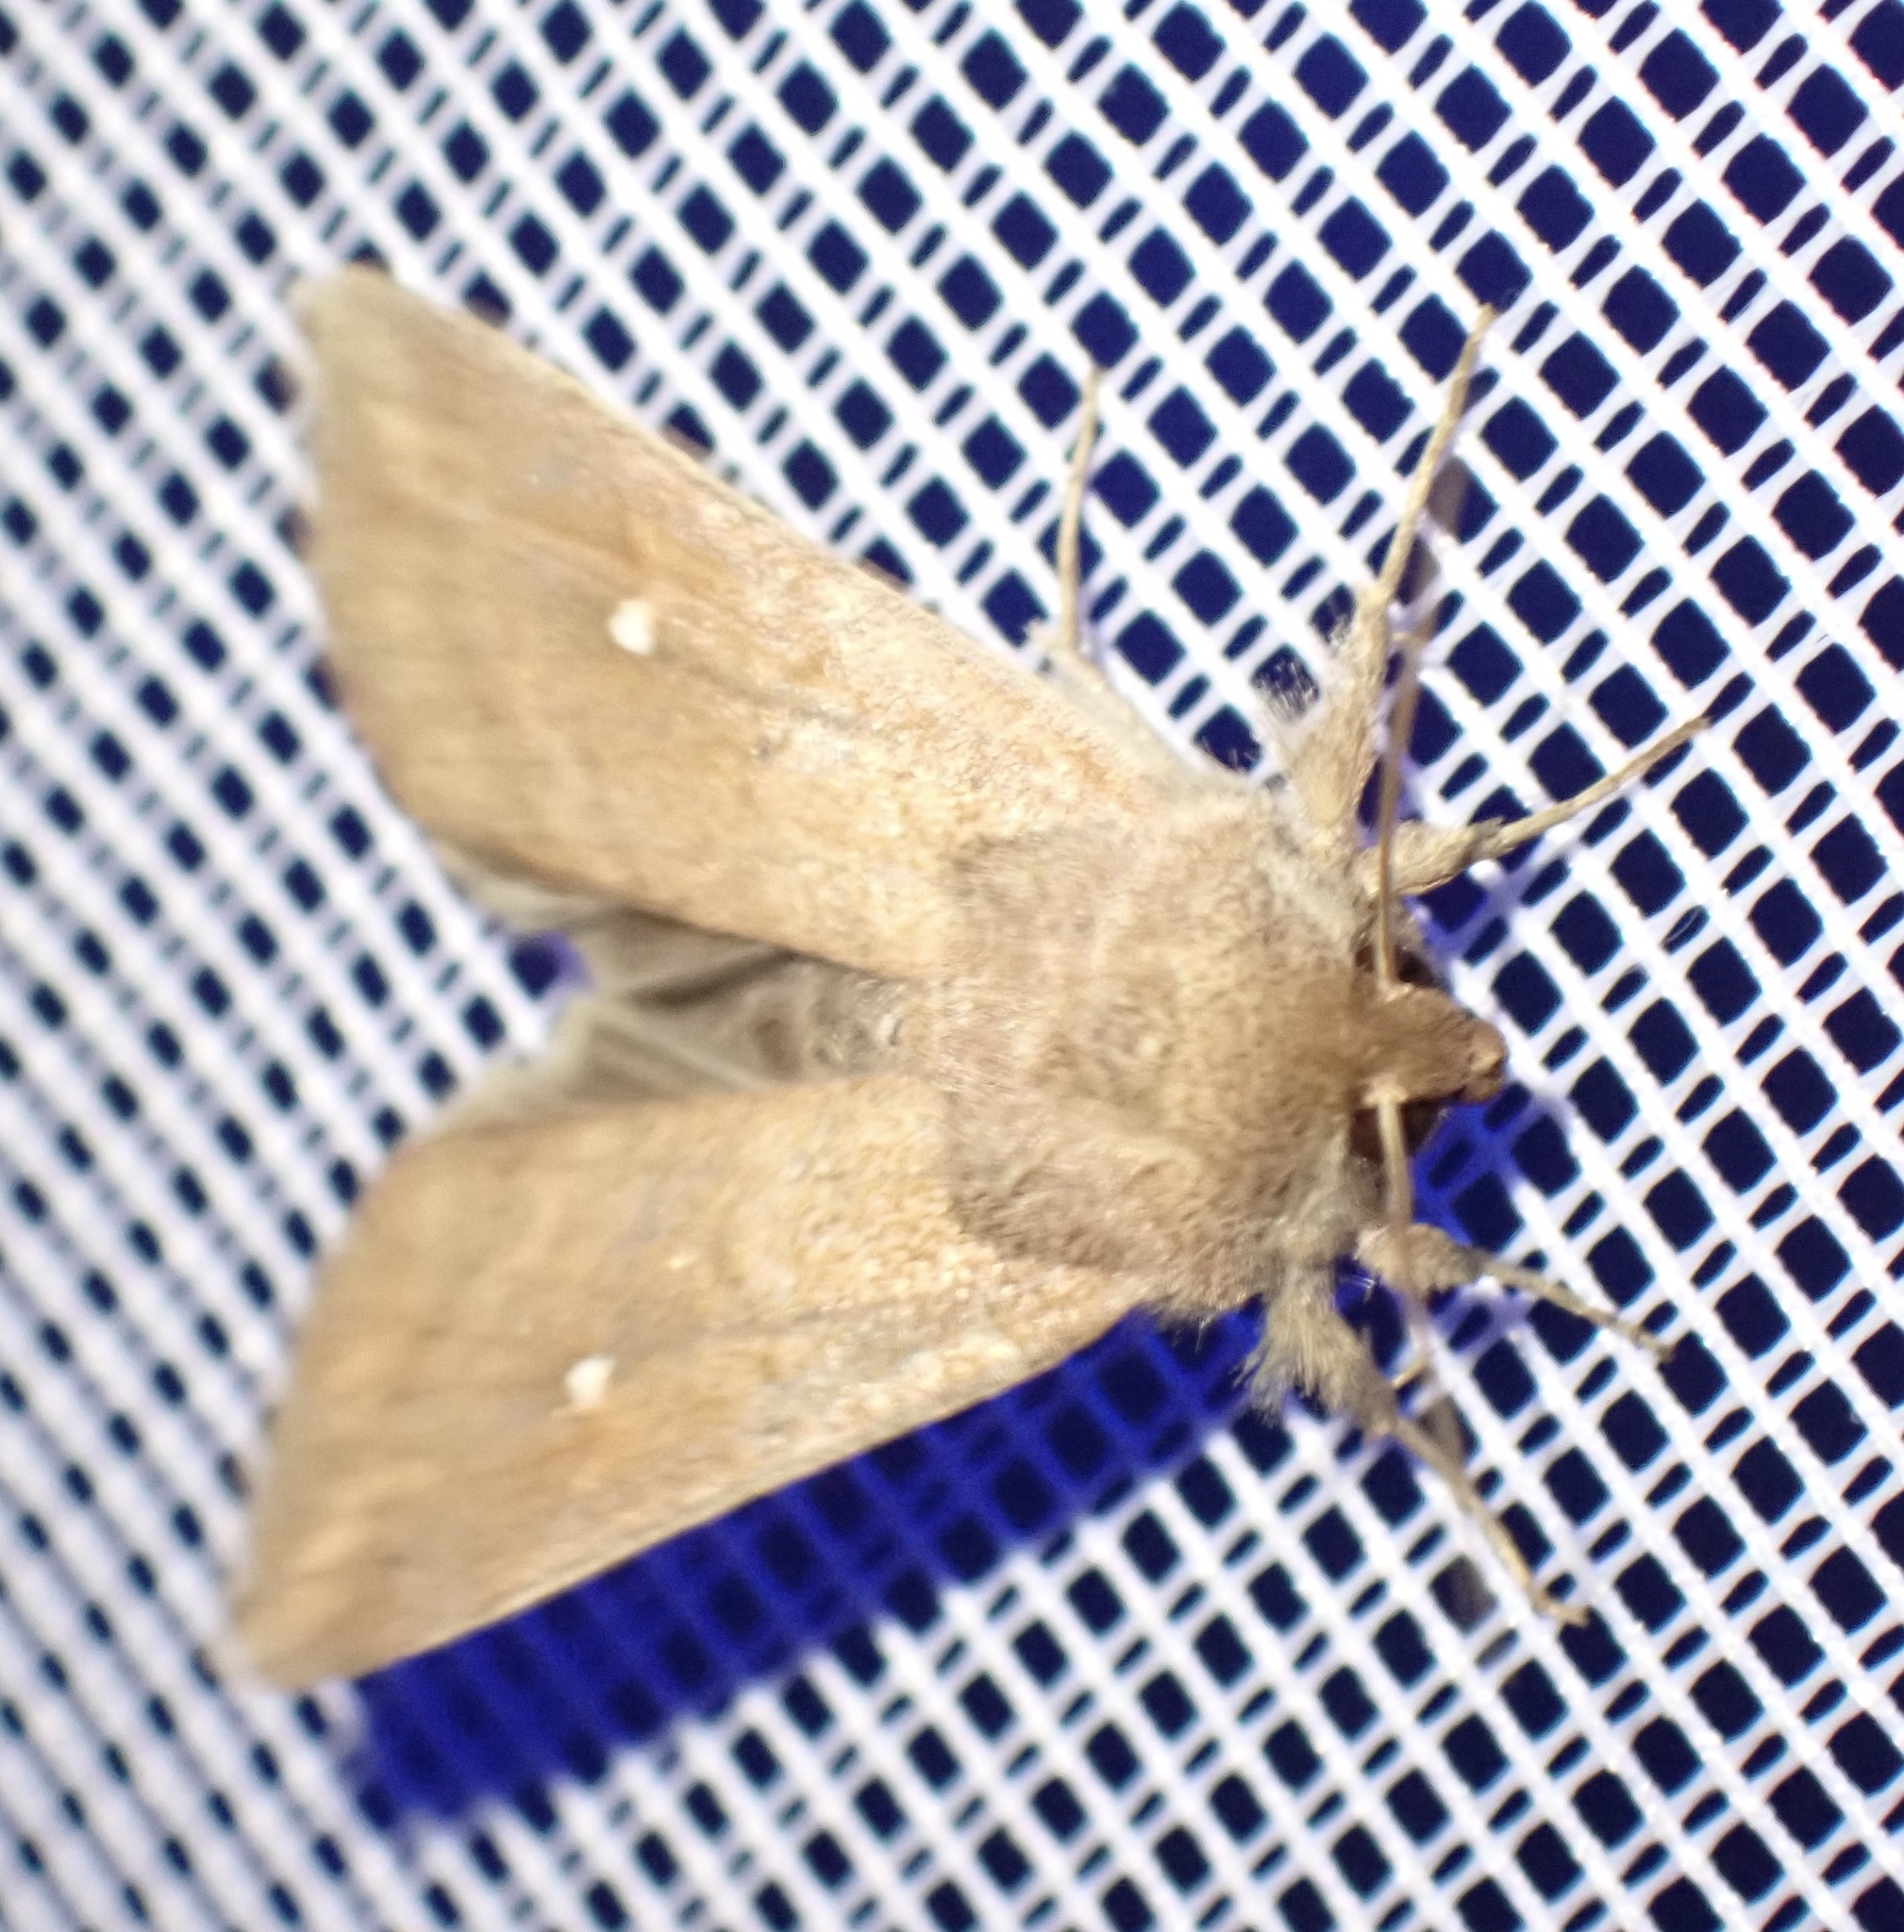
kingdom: Animalia
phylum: Arthropoda
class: Insecta
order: Lepidoptera
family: Noctuidae
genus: Mythimna
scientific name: Mythimna albipuncta
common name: White-point
